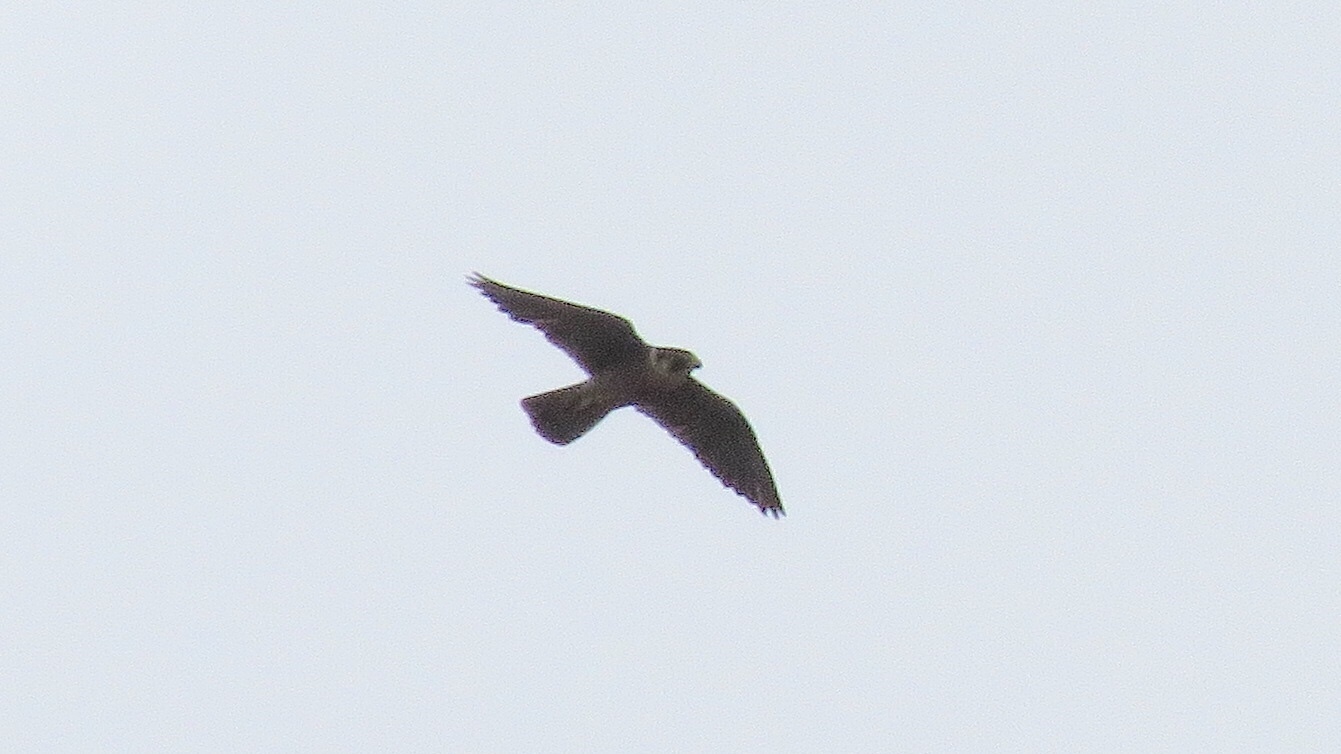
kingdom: Animalia
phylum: Chordata
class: Aves
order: Falconiformes
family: Falconidae
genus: Falco
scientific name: Falco peregrinus
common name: Peregrine falcon
